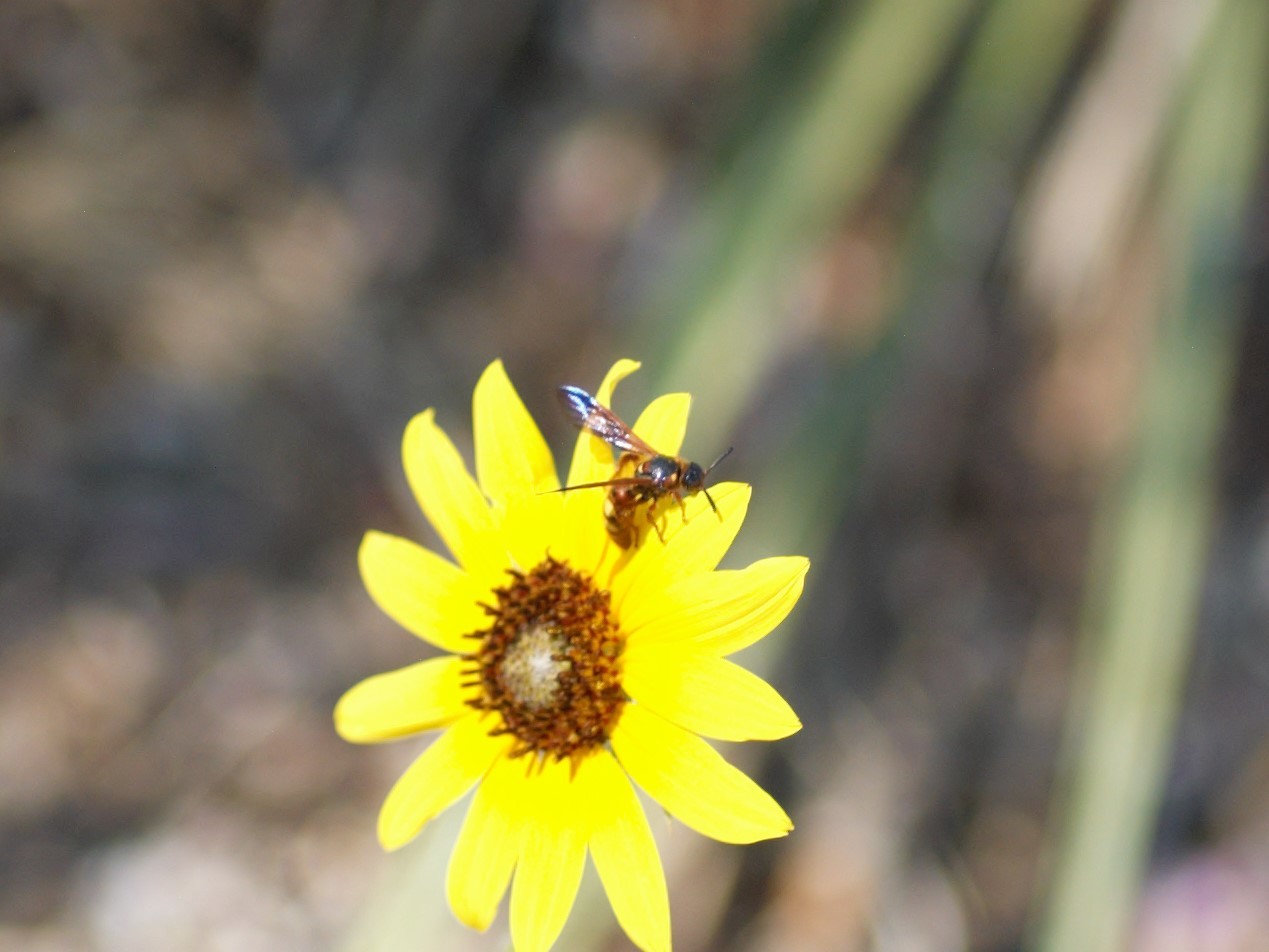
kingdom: Animalia
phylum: Arthropoda
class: Insecta
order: Hymenoptera
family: Scoliidae
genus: Scolia
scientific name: Scolia nobilitata
